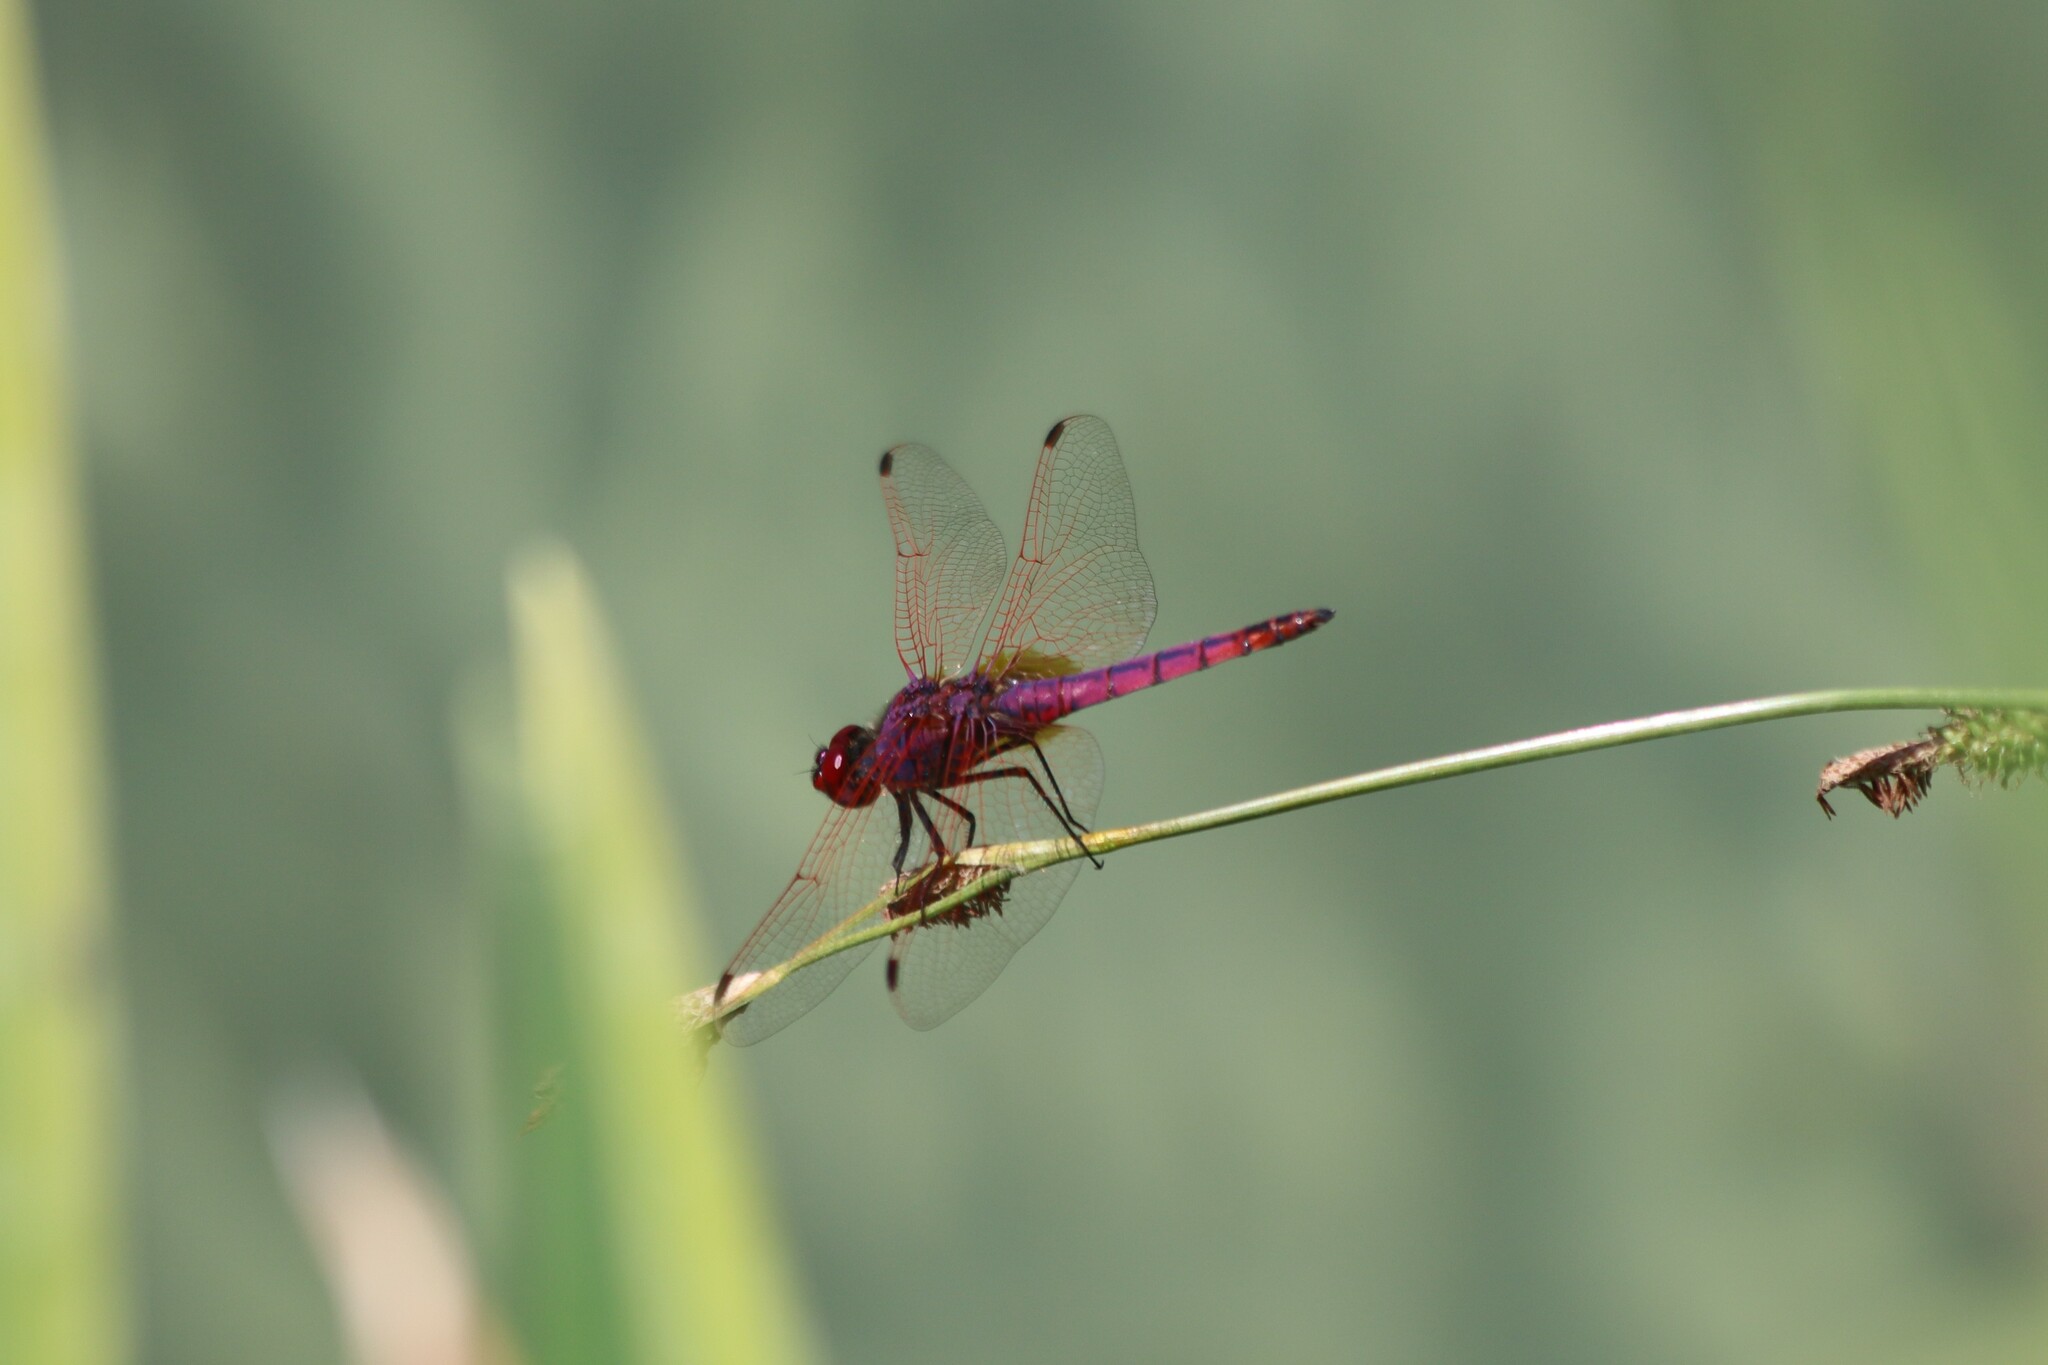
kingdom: Animalia
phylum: Arthropoda
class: Insecta
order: Odonata
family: Libellulidae
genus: Trithemis
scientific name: Trithemis annulata
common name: Violet dropwing
